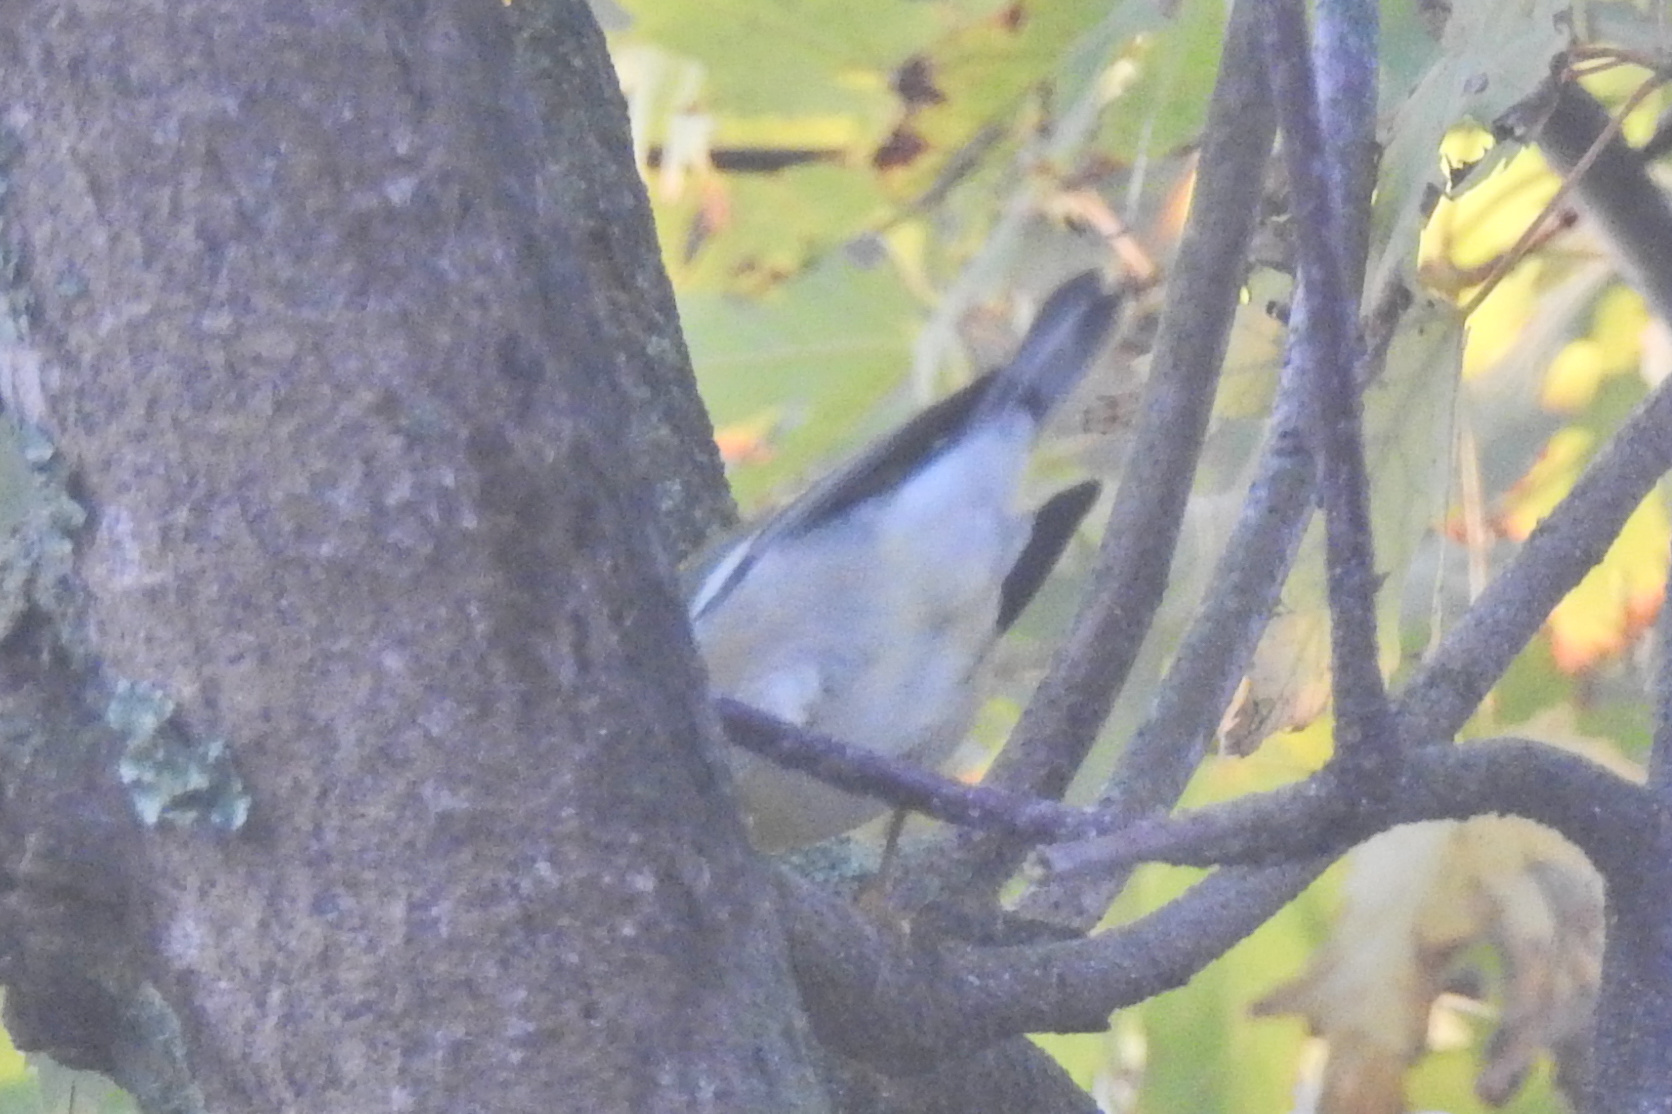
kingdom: Animalia
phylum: Chordata
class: Aves
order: Passeriformes
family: Parulidae
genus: Setophaga
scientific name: Setophaga americana
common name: Northern parula
